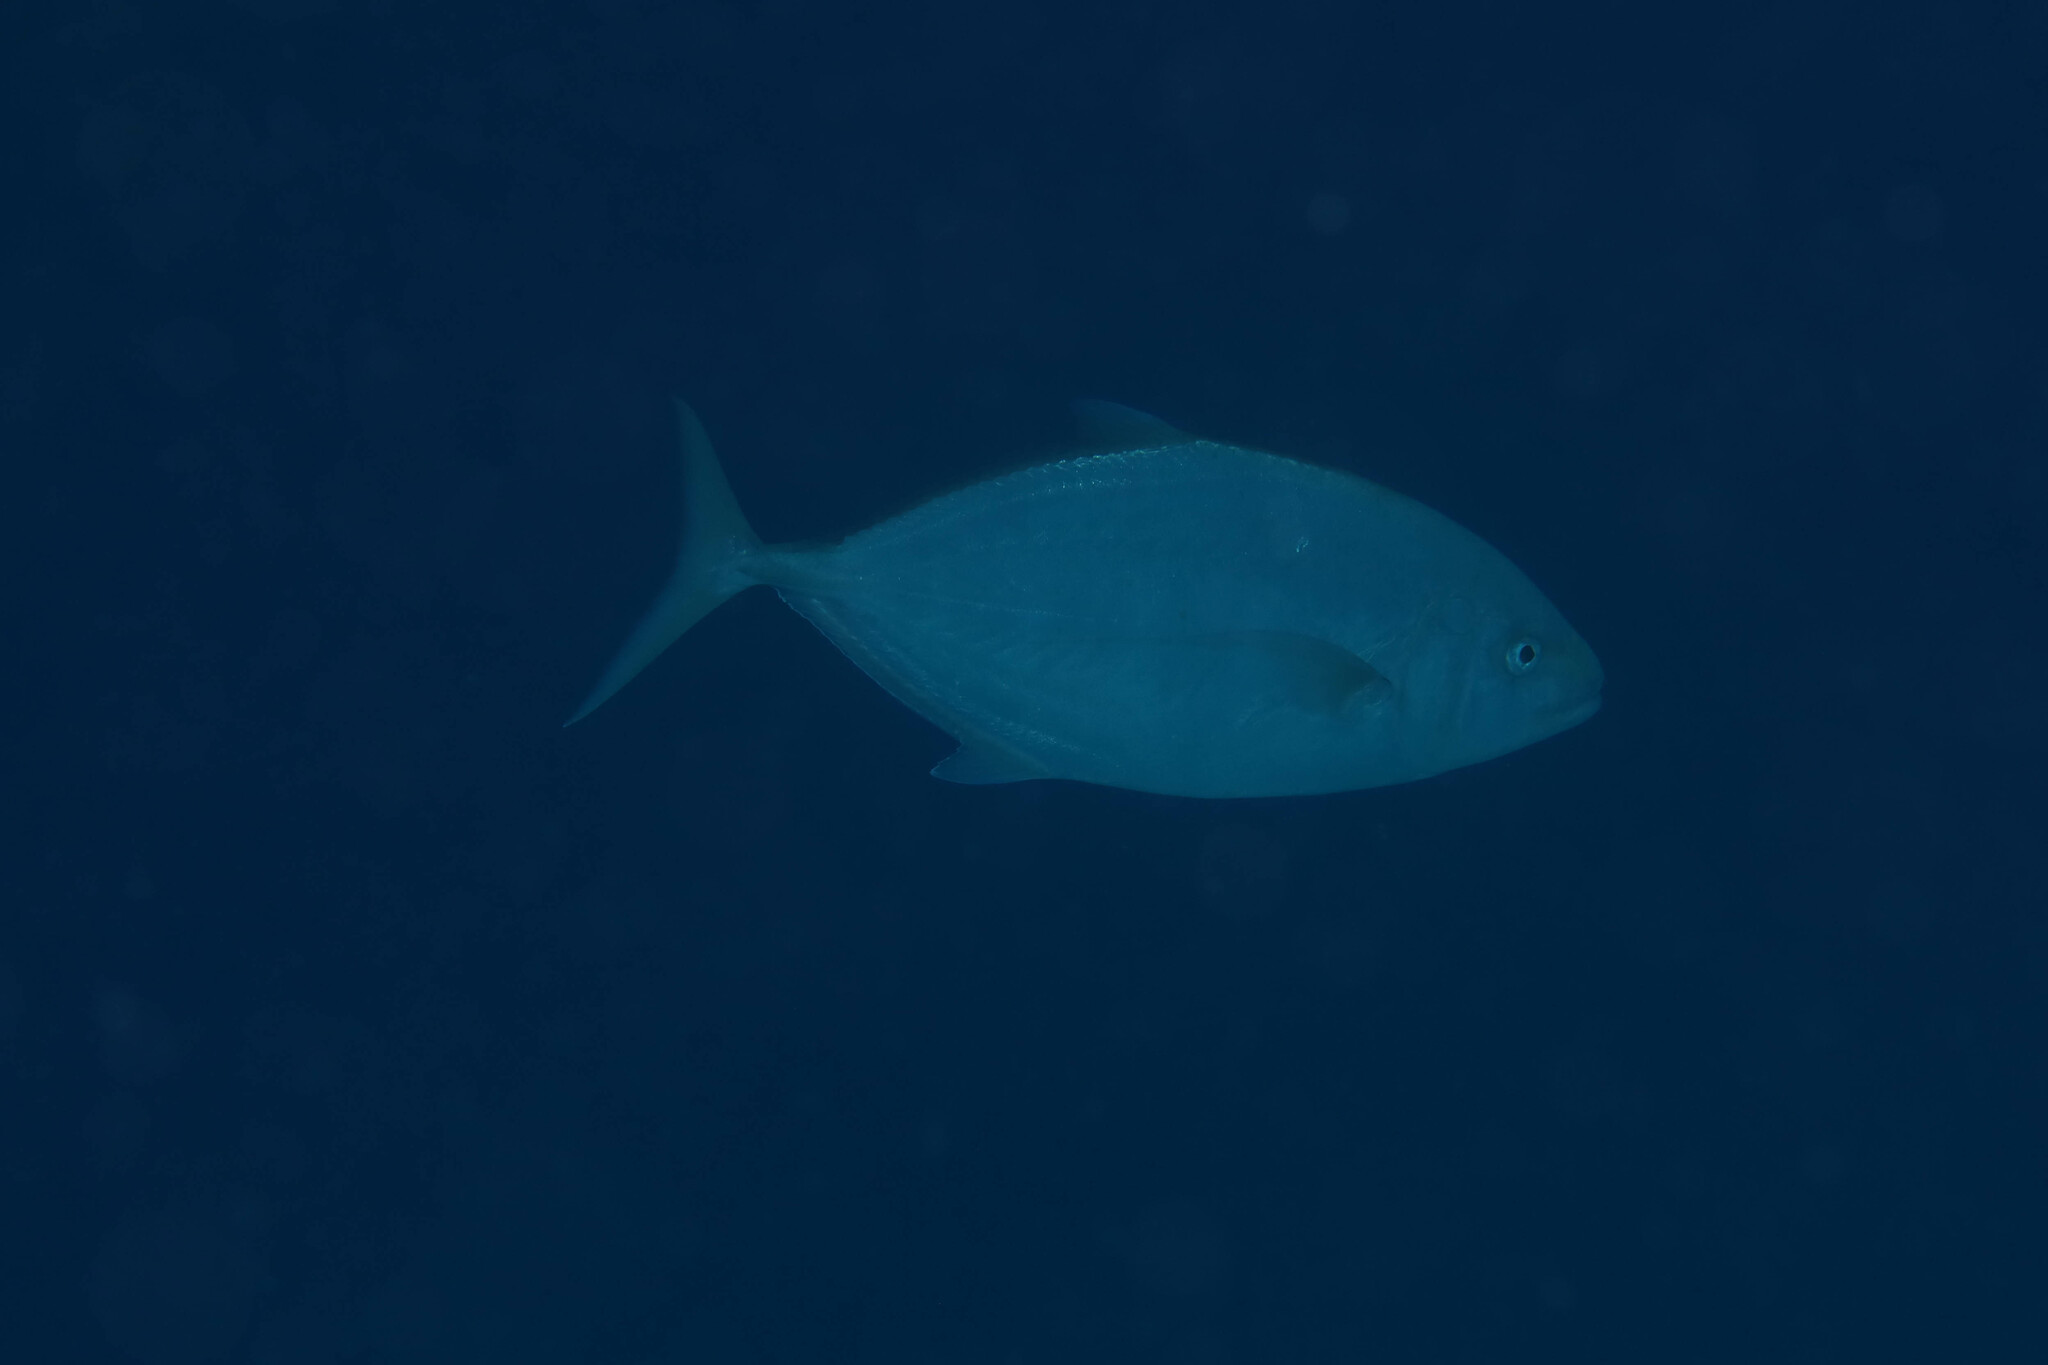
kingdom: Animalia
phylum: Chordata
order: Perciformes
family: Carangidae
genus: Flavocaranx
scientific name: Flavocaranx bajad
